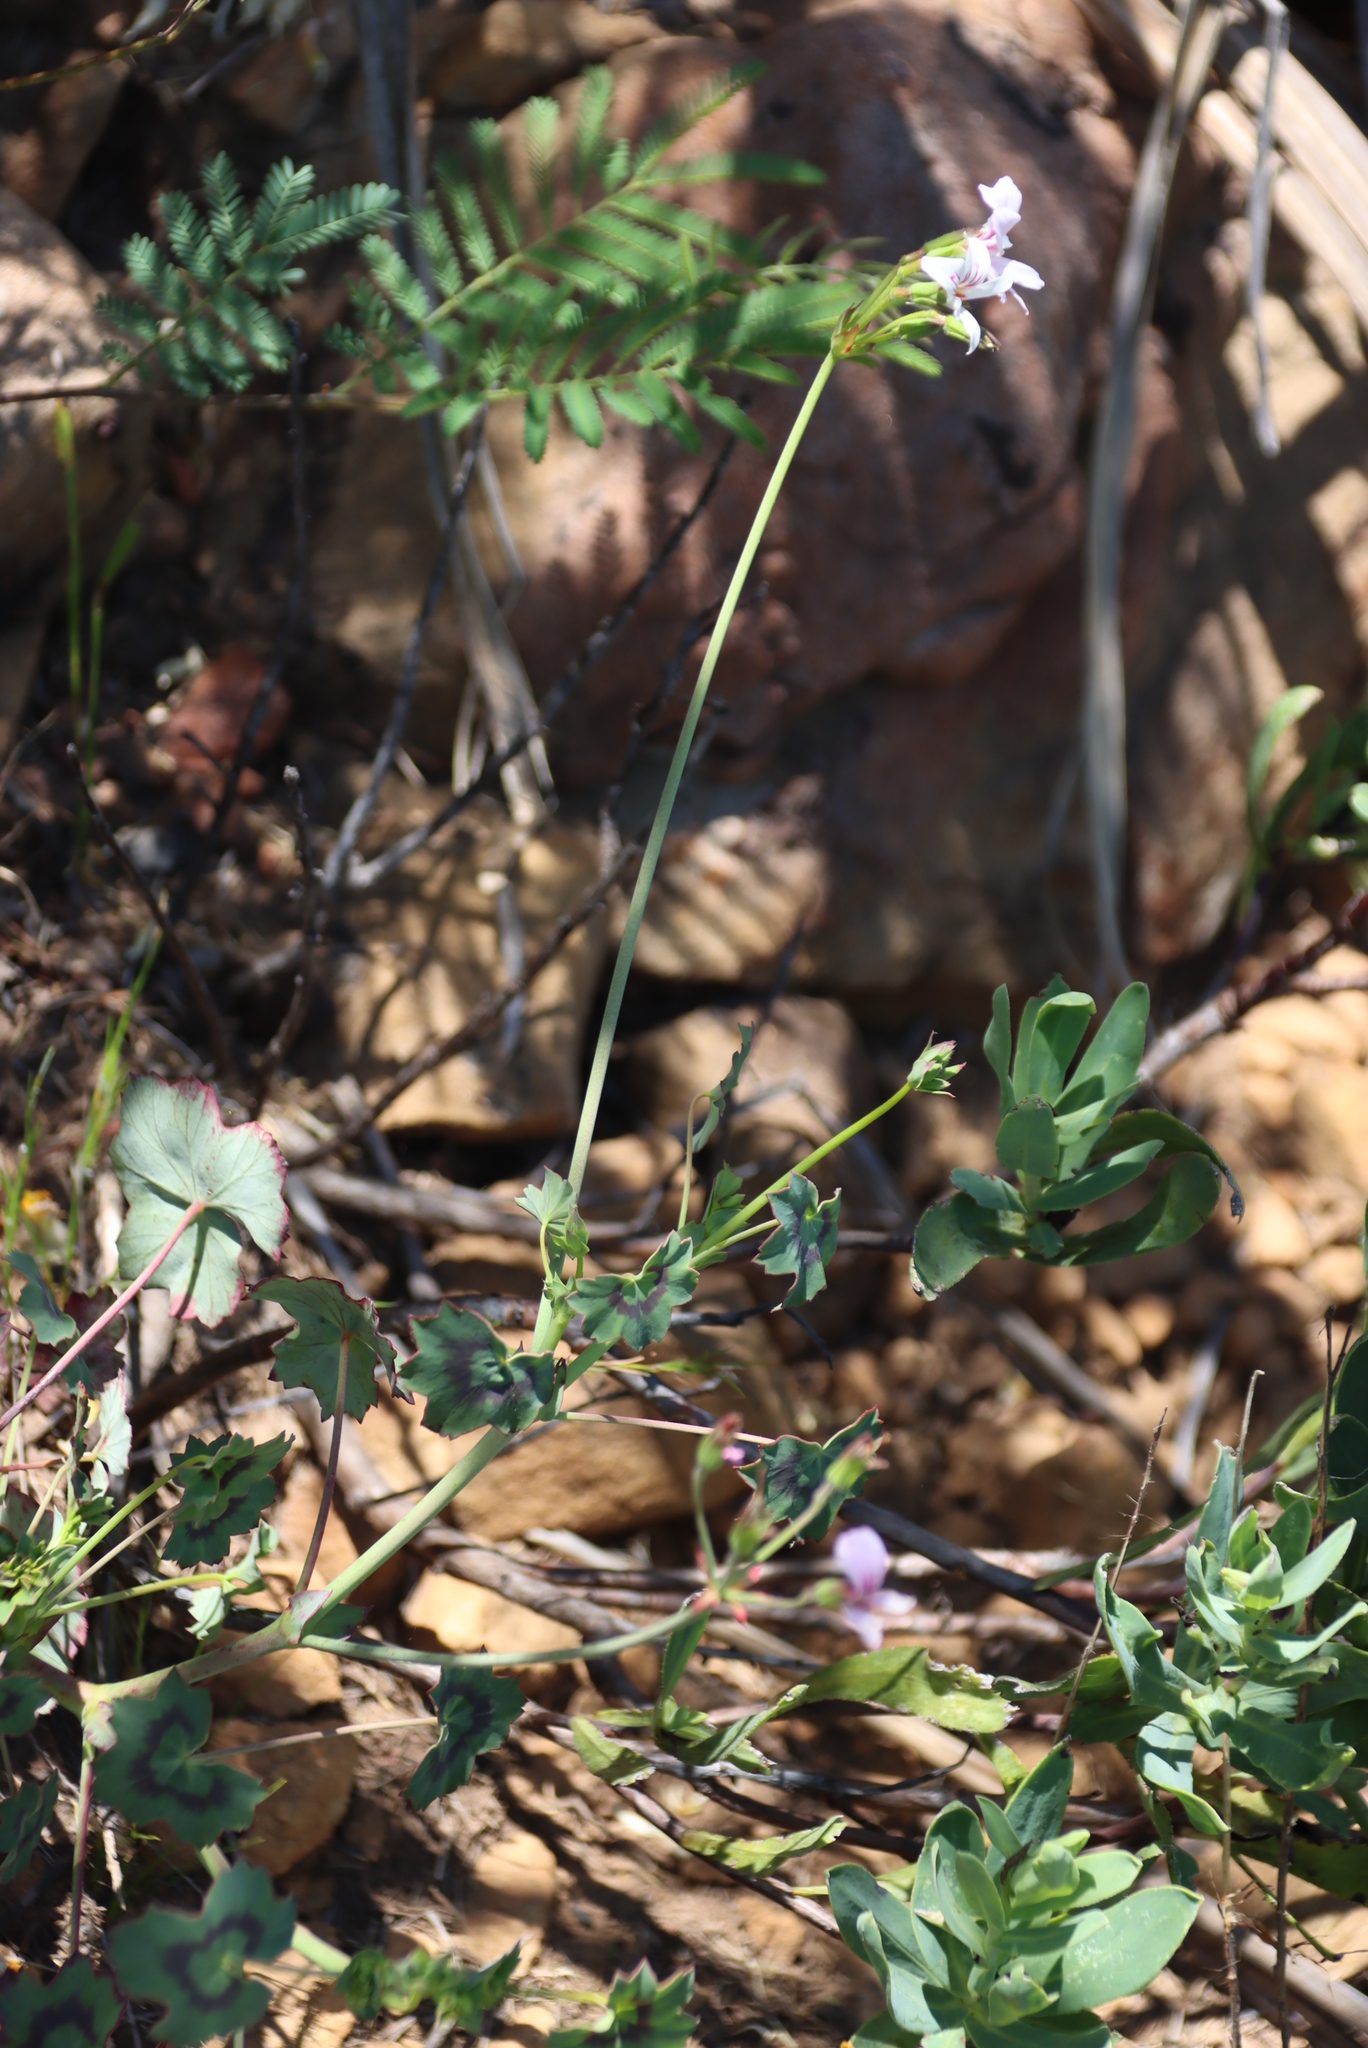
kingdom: Plantae
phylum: Tracheophyta
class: Magnoliopsida
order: Geraniales
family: Geraniaceae
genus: Pelargonium
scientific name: Pelargonium tabulare
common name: Table mountain pelargonium
